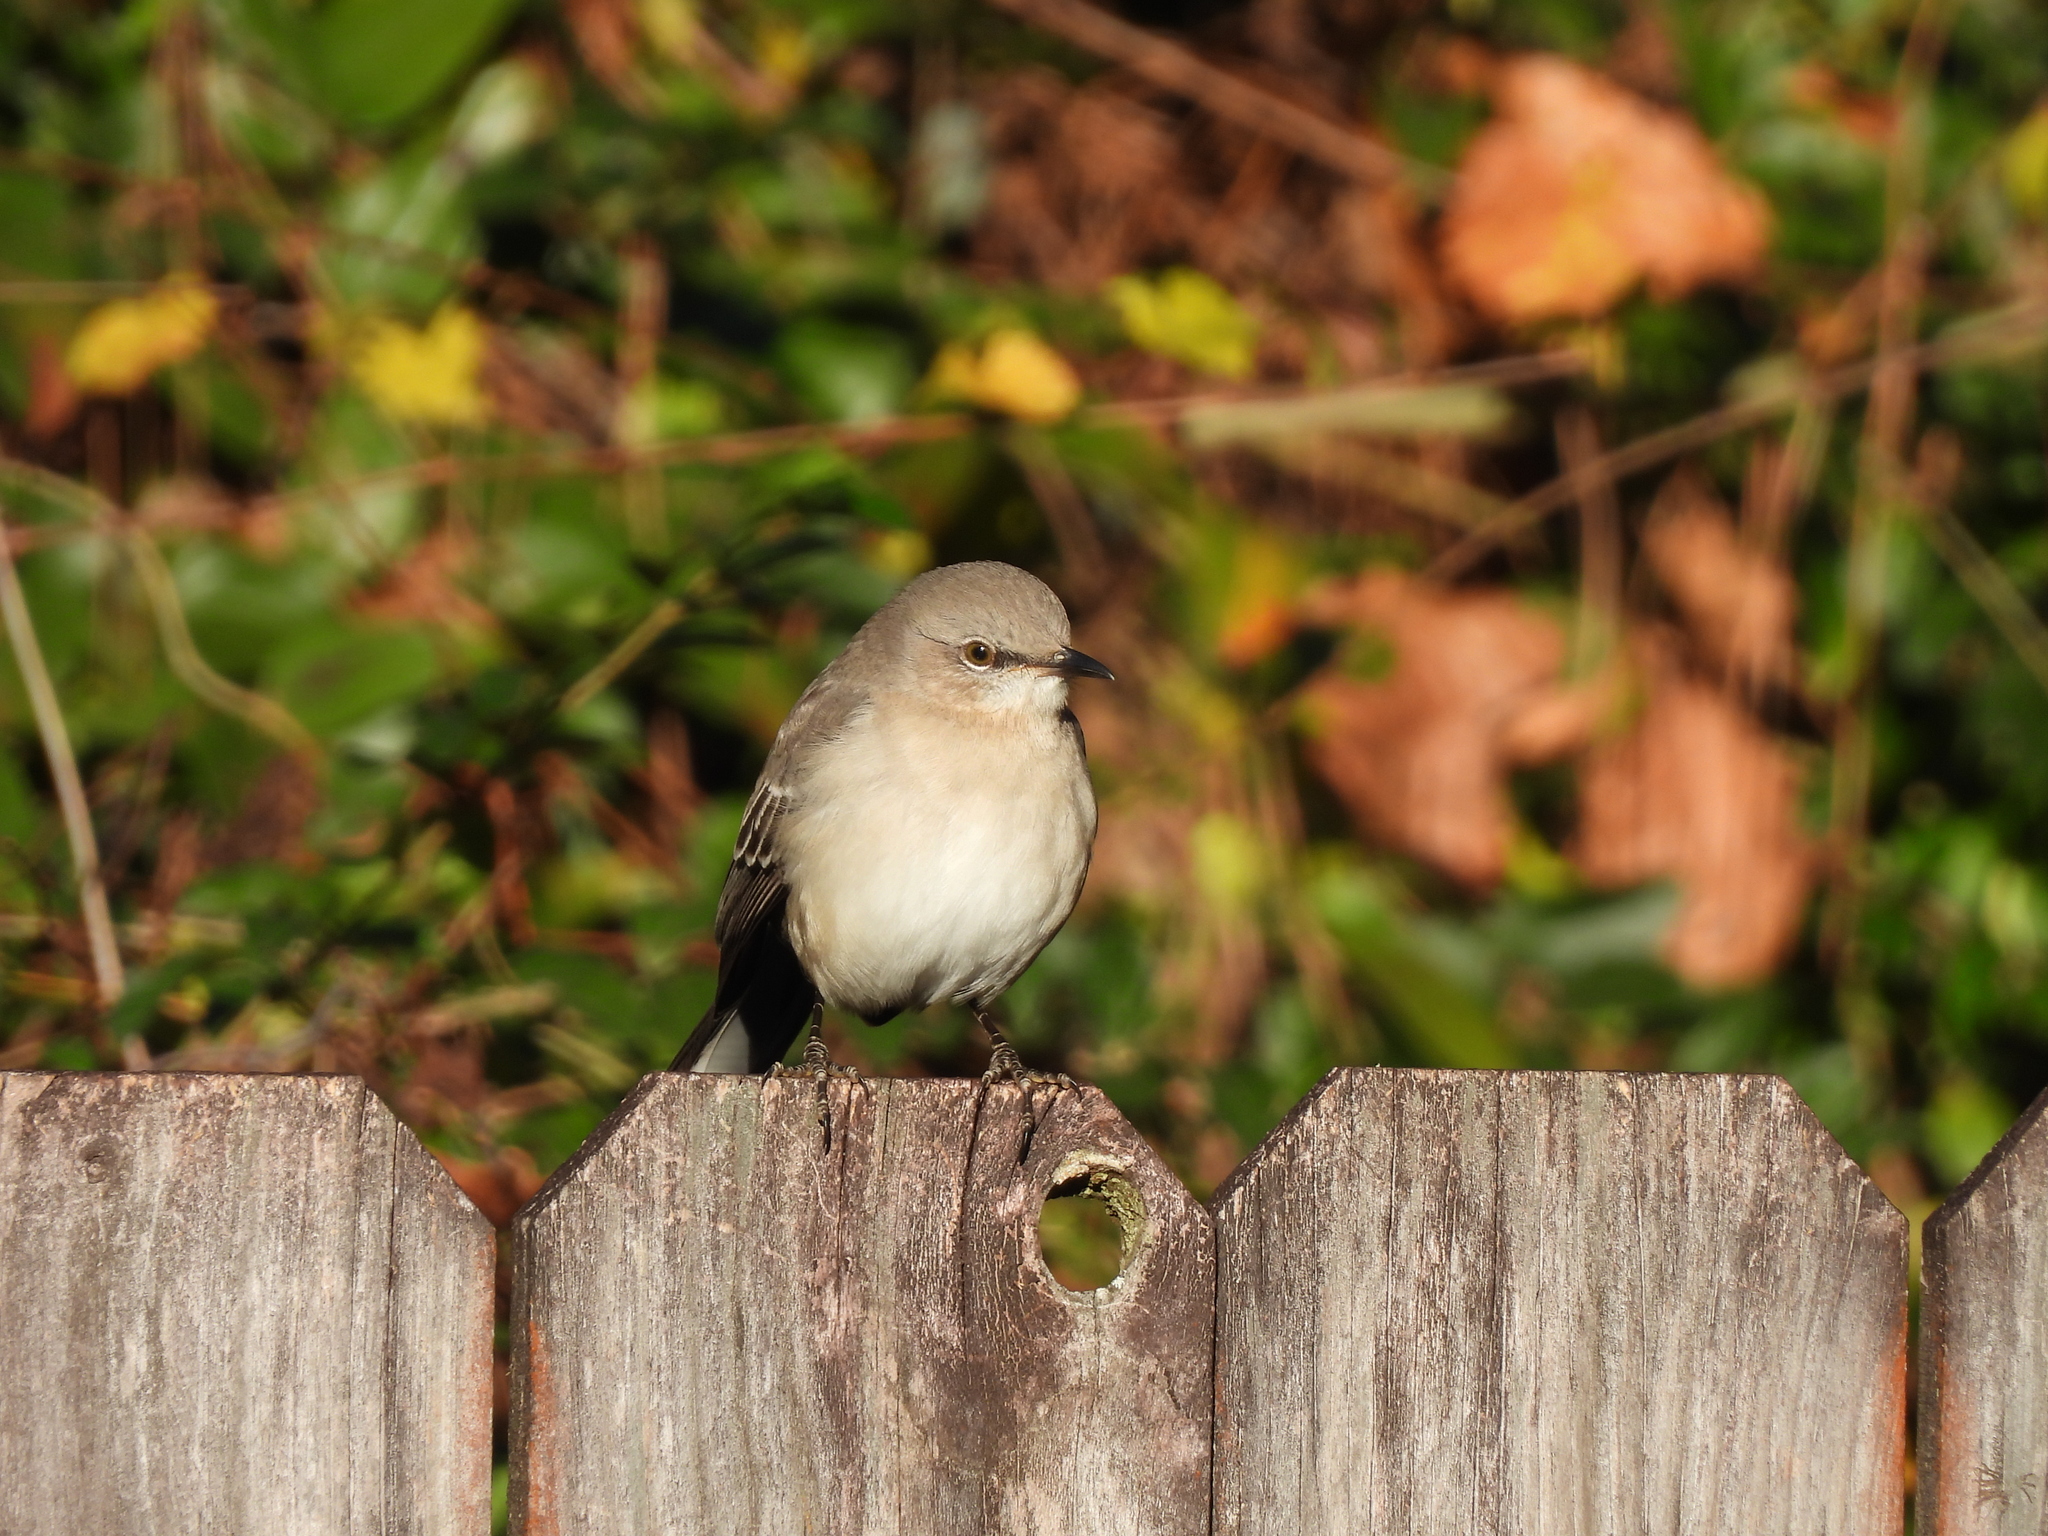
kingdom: Animalia
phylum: Chordata
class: Aves
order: Passeriformes
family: Mimidae
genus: Mimus
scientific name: Mimus polyglottos
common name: Northern mockingbird
